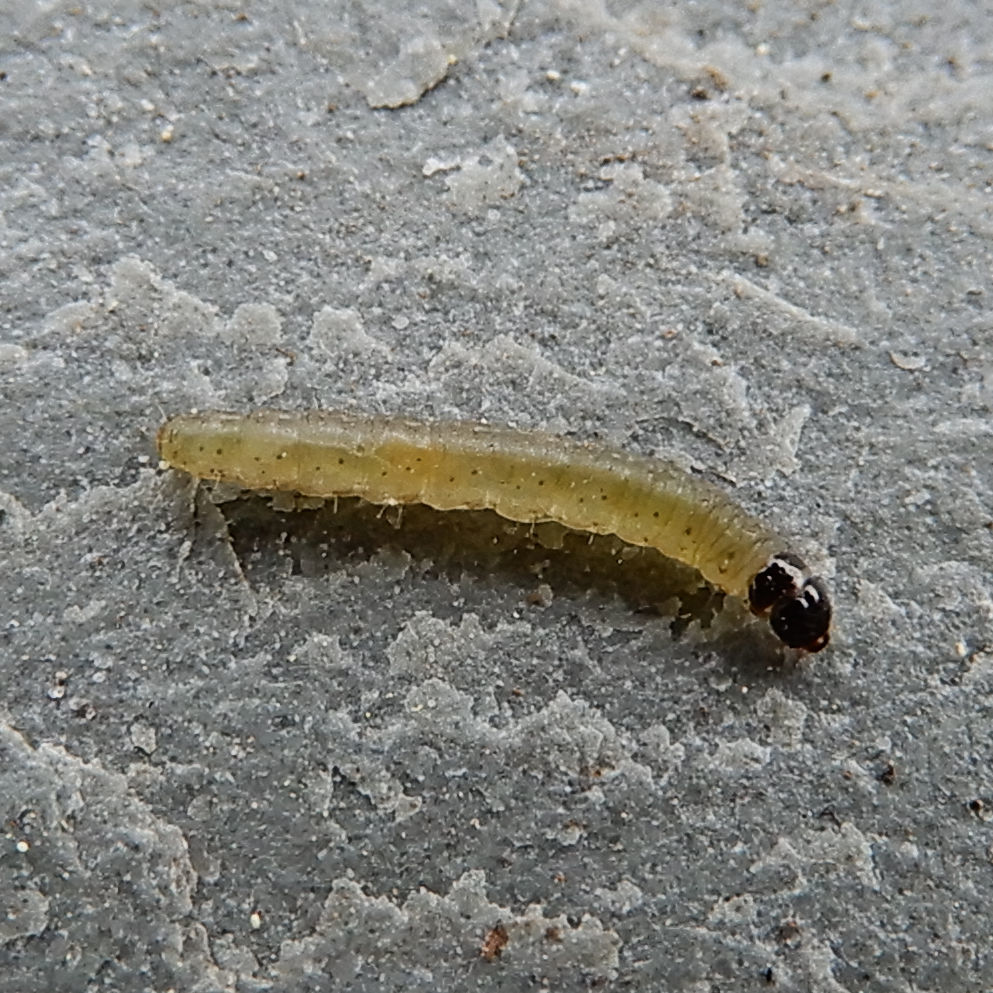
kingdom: Animalia
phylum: Arthropoda
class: Insecta
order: Lepidoptera
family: Tortricidae
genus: Olethreutes
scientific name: Olethreutes ferriferana
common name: Hydrangea leaftier moth
